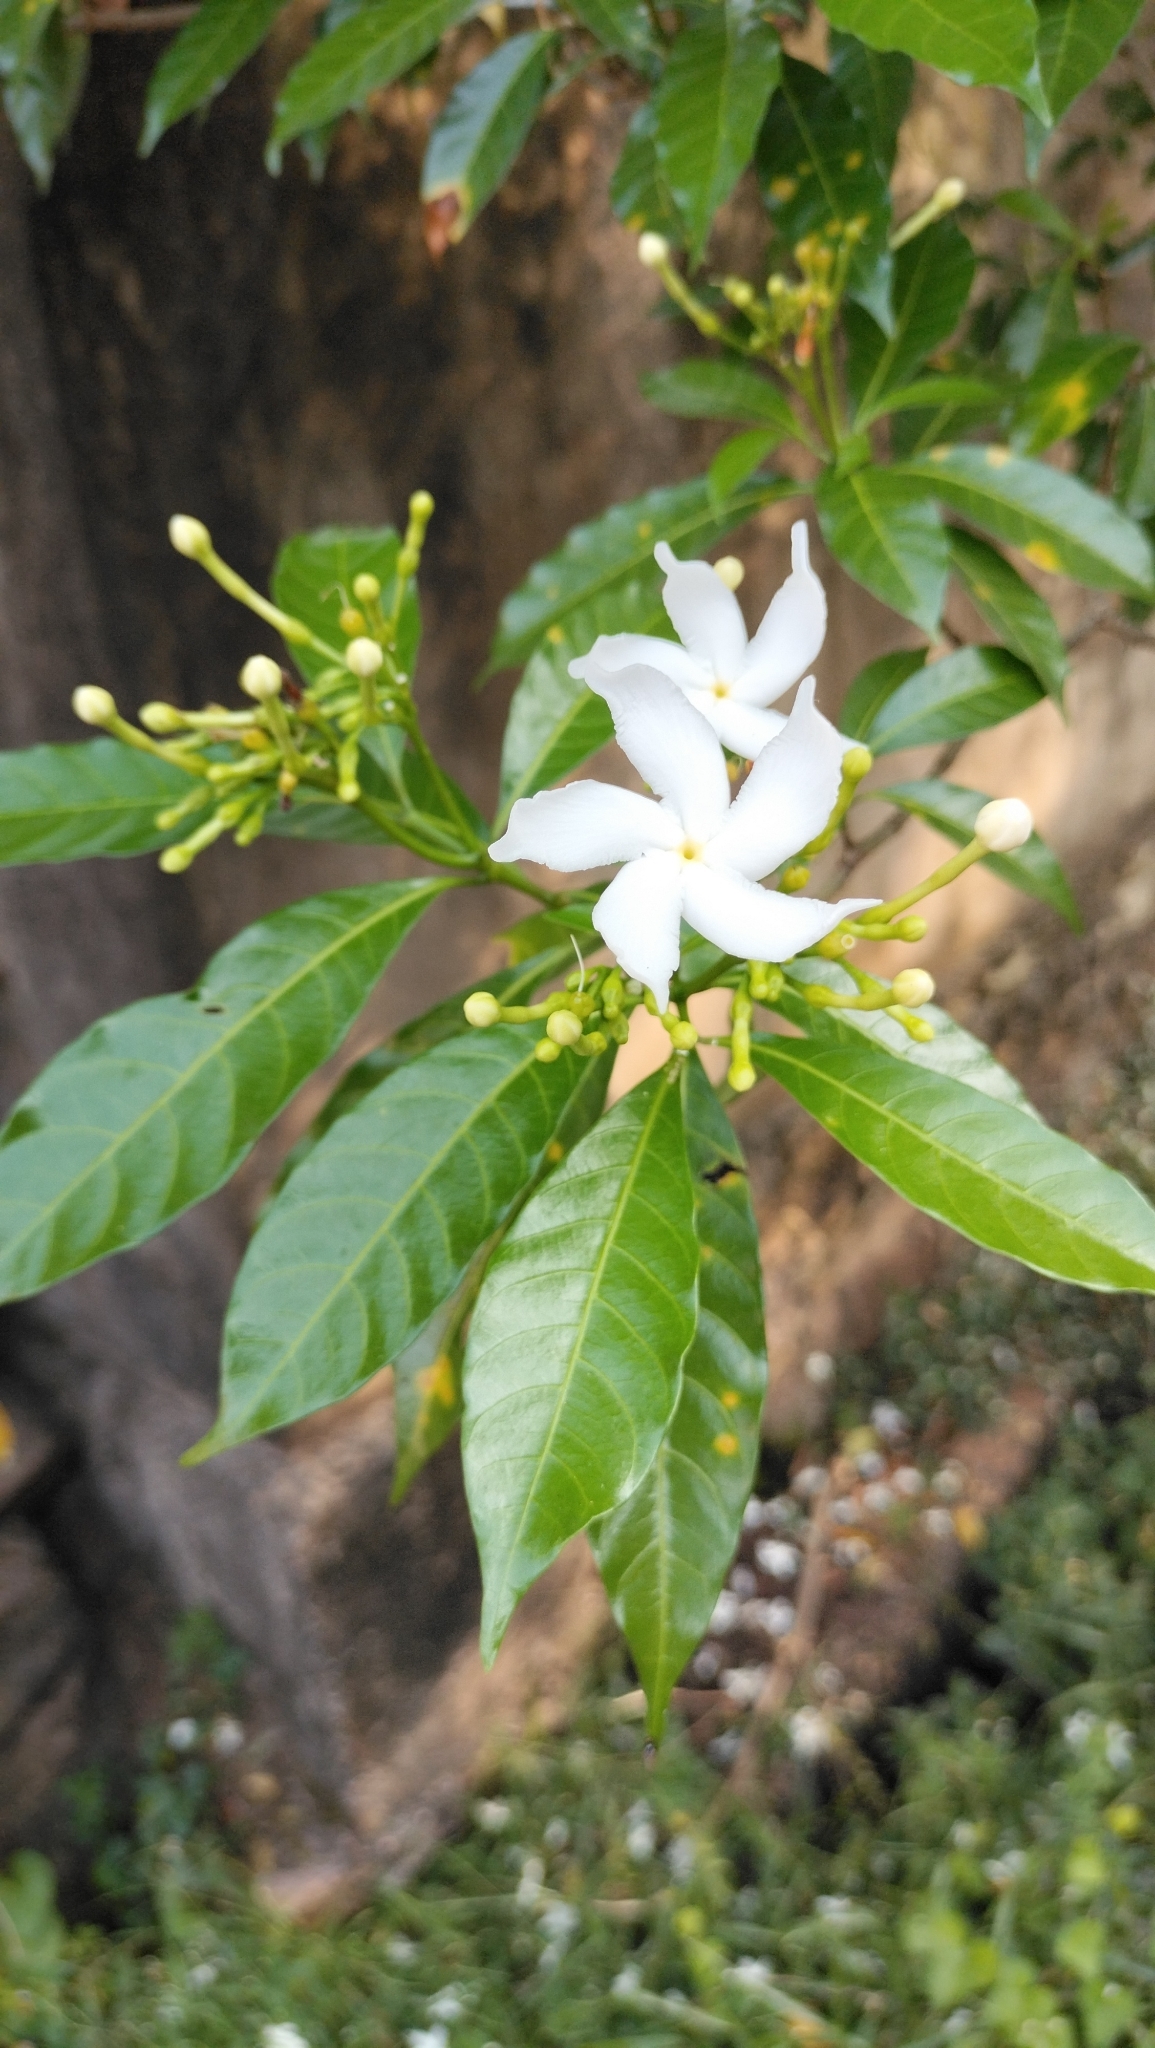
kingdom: Plantae
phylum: Tracheophyta
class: Magnoliopsida
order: Gentianales
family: Apocynaceae
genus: Tabernaemontana
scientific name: Tabernaemontana divaricata
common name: Pinwheelflower
